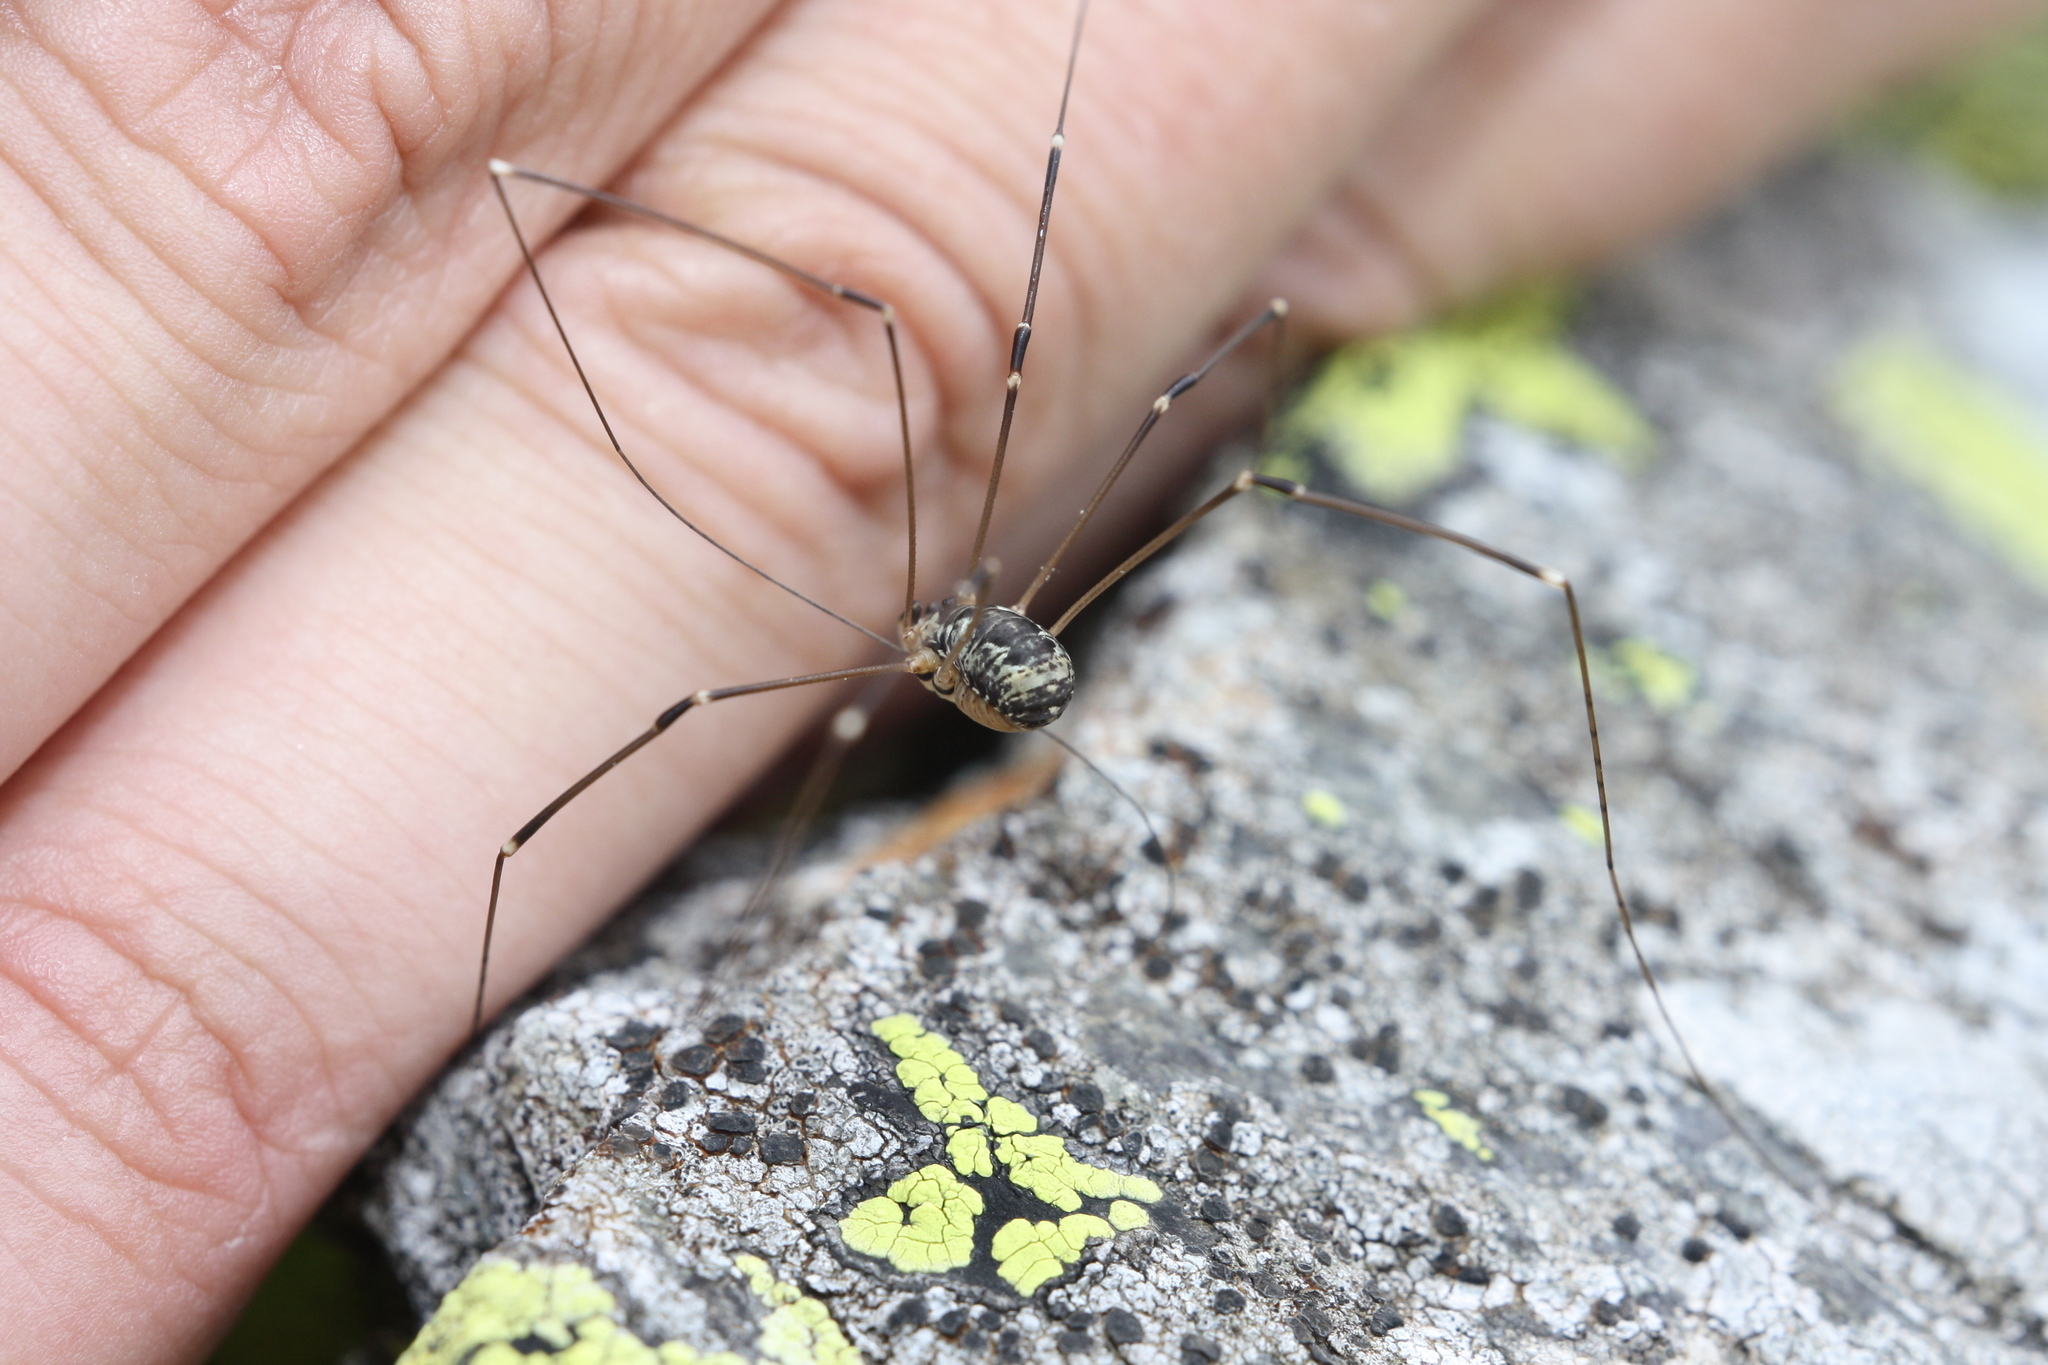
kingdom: Animalia
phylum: Arthropoda
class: Arachnida
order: Opiliones
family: Sclerosomatidae
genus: Leiobunum
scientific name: Leiobunum subalpinum
